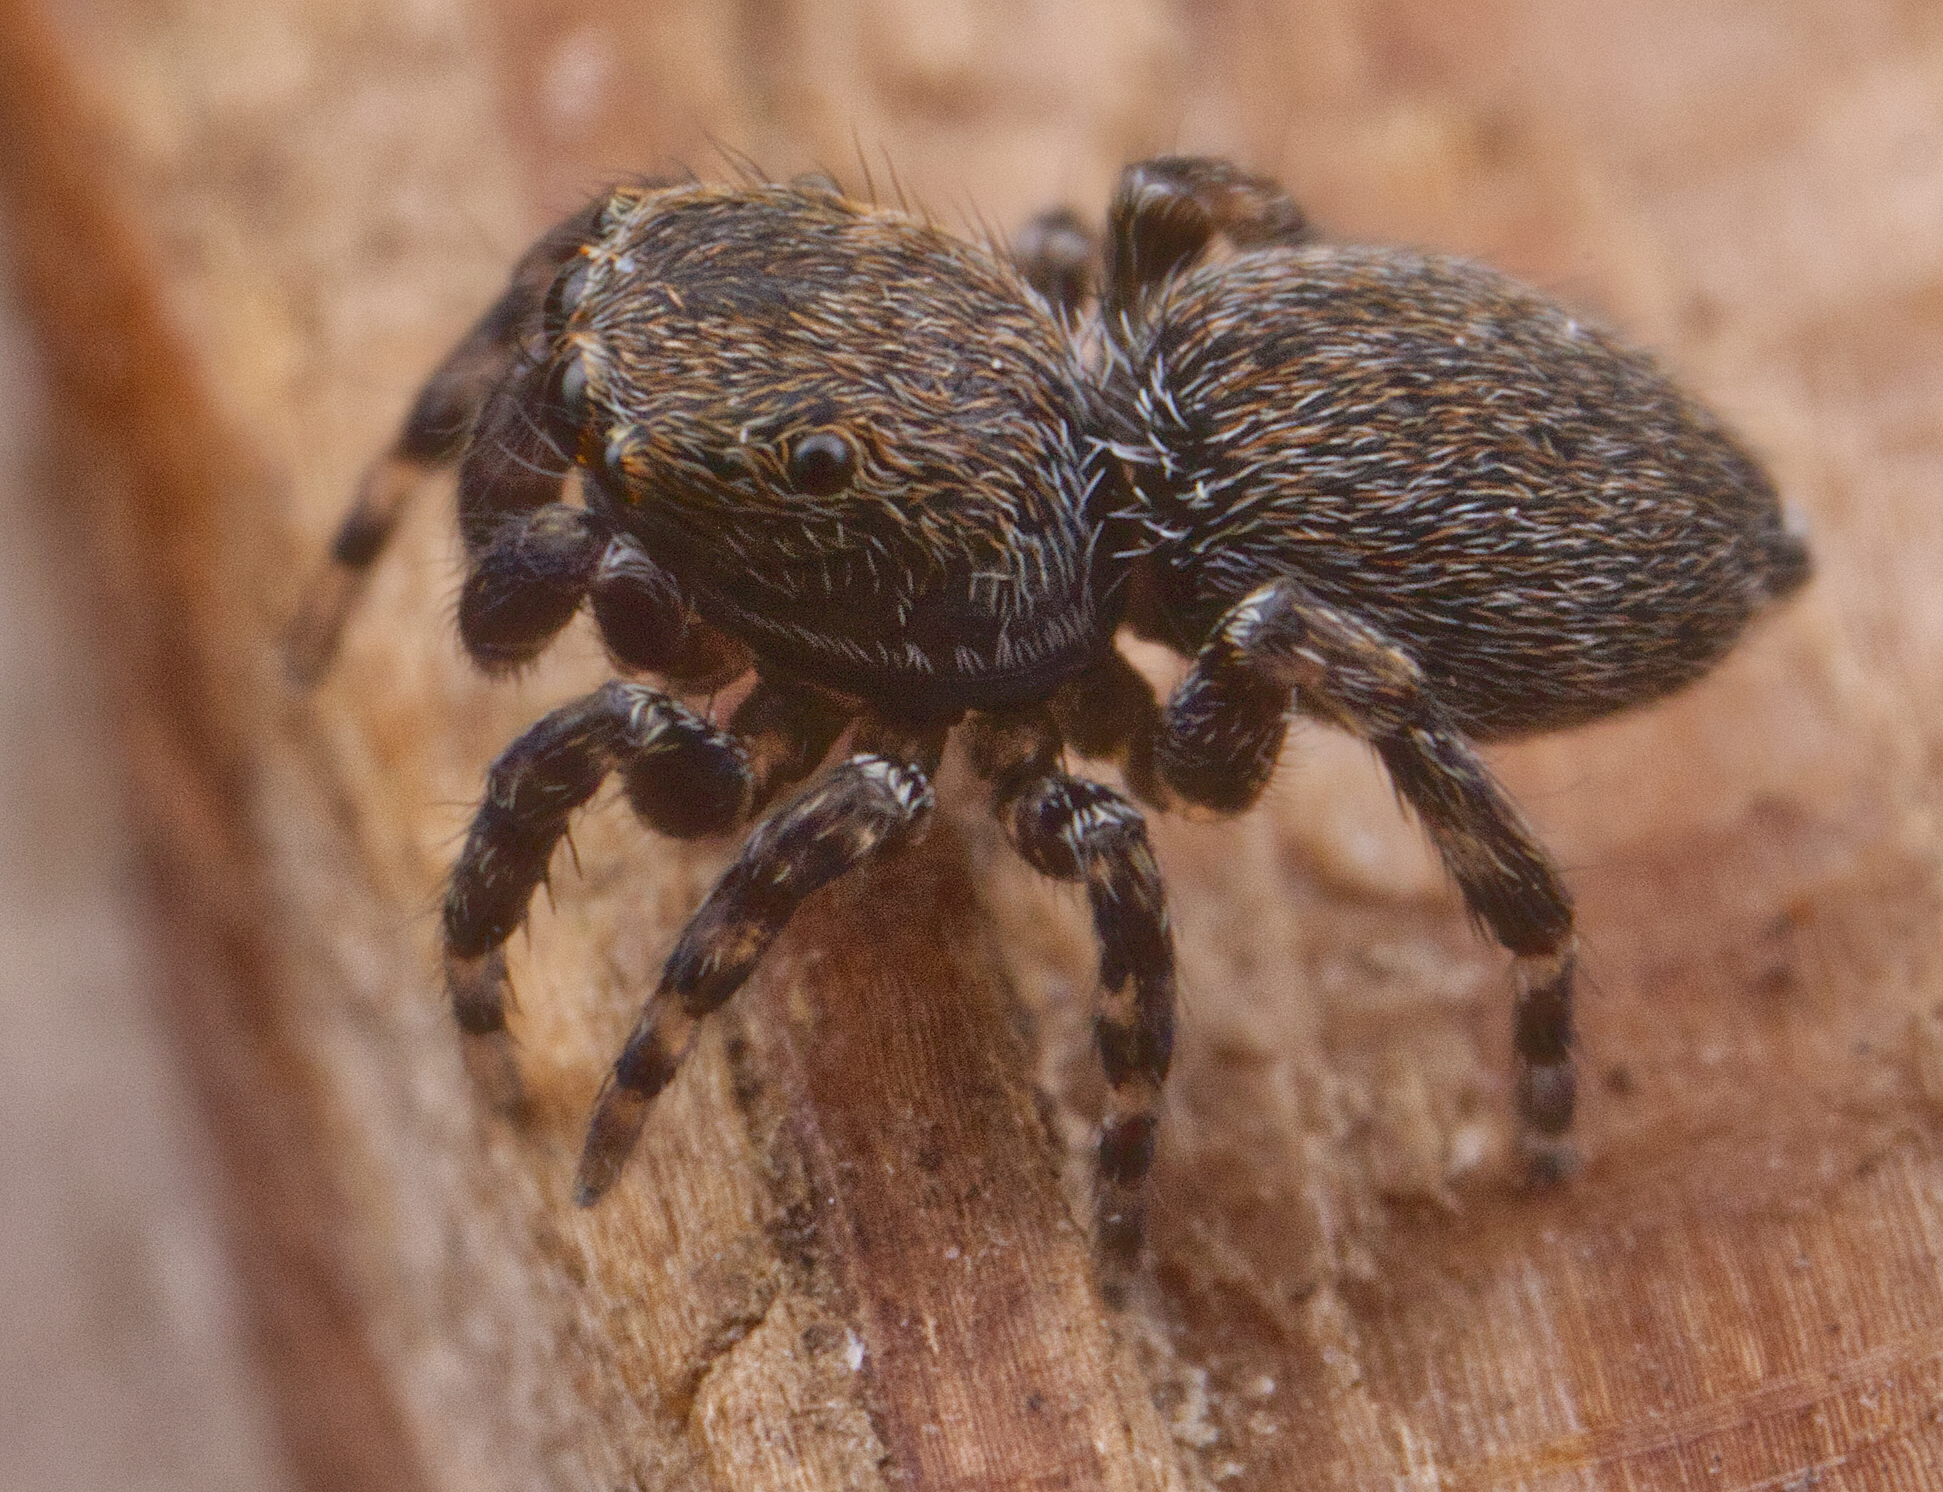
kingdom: Animalia
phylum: Arthropoda
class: Arachnida
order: Araneae
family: Salticidae
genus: Attinella
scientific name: Attinella concolor
